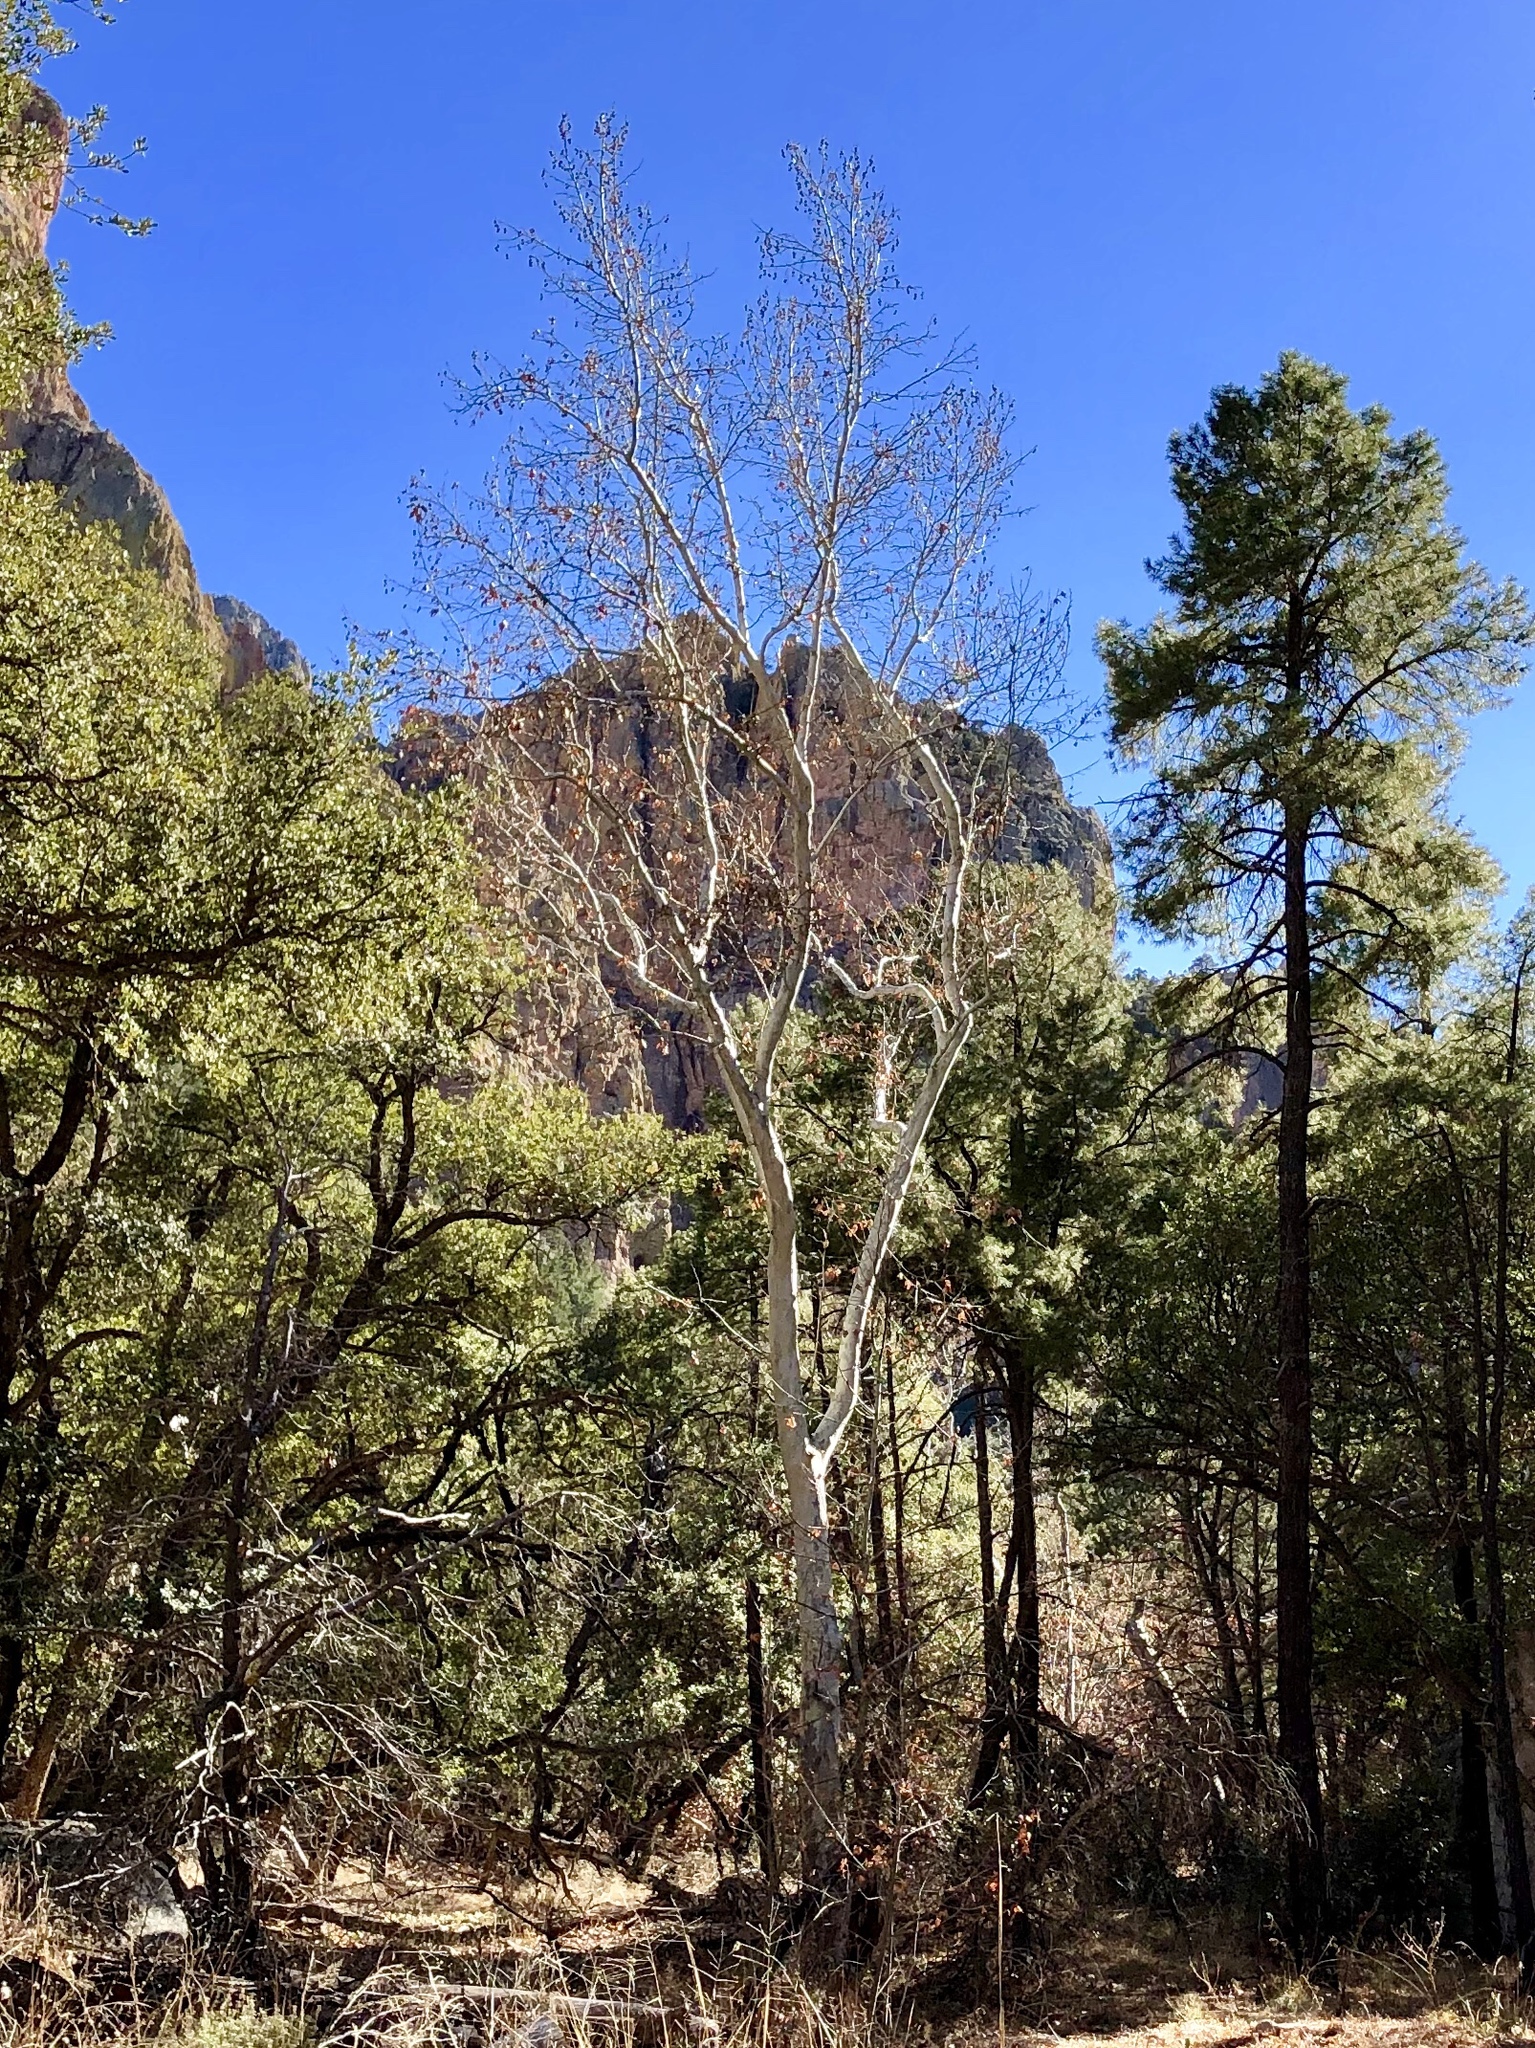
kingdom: Plantae
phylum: Tracheophyta
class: Magnoliopsida
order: Proteales
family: Platanaceae
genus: Platanus
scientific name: Platanus wrightii
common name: Arizona sycamore
